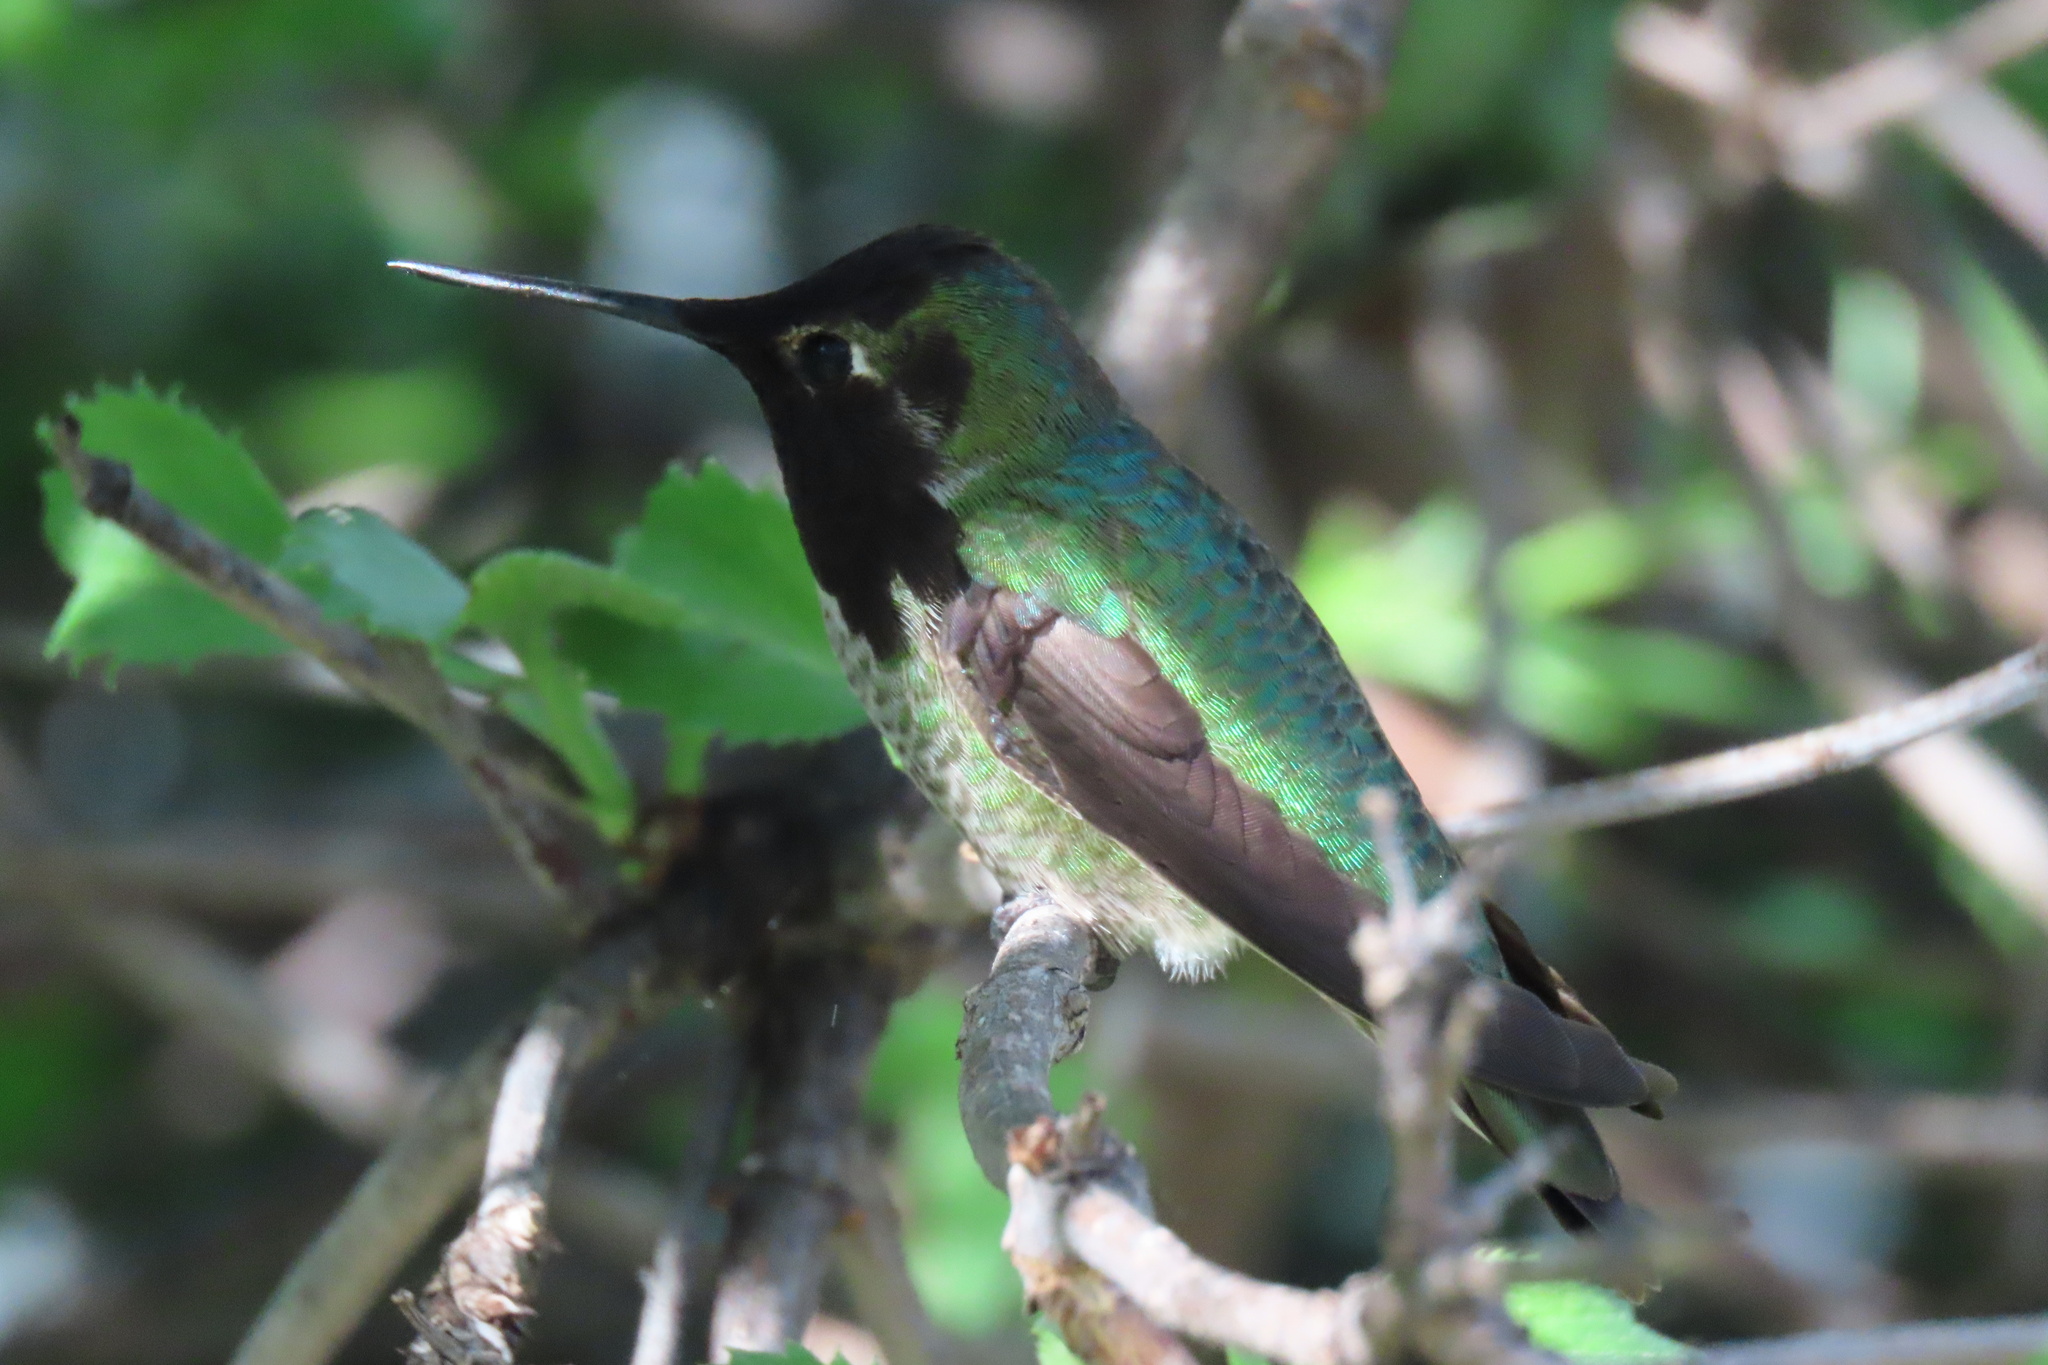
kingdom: Animalia
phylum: Chordata
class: Aves
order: Apodiformes
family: Trochilidae
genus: Calypte
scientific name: Calypte anna
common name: Anna's hummingbird
